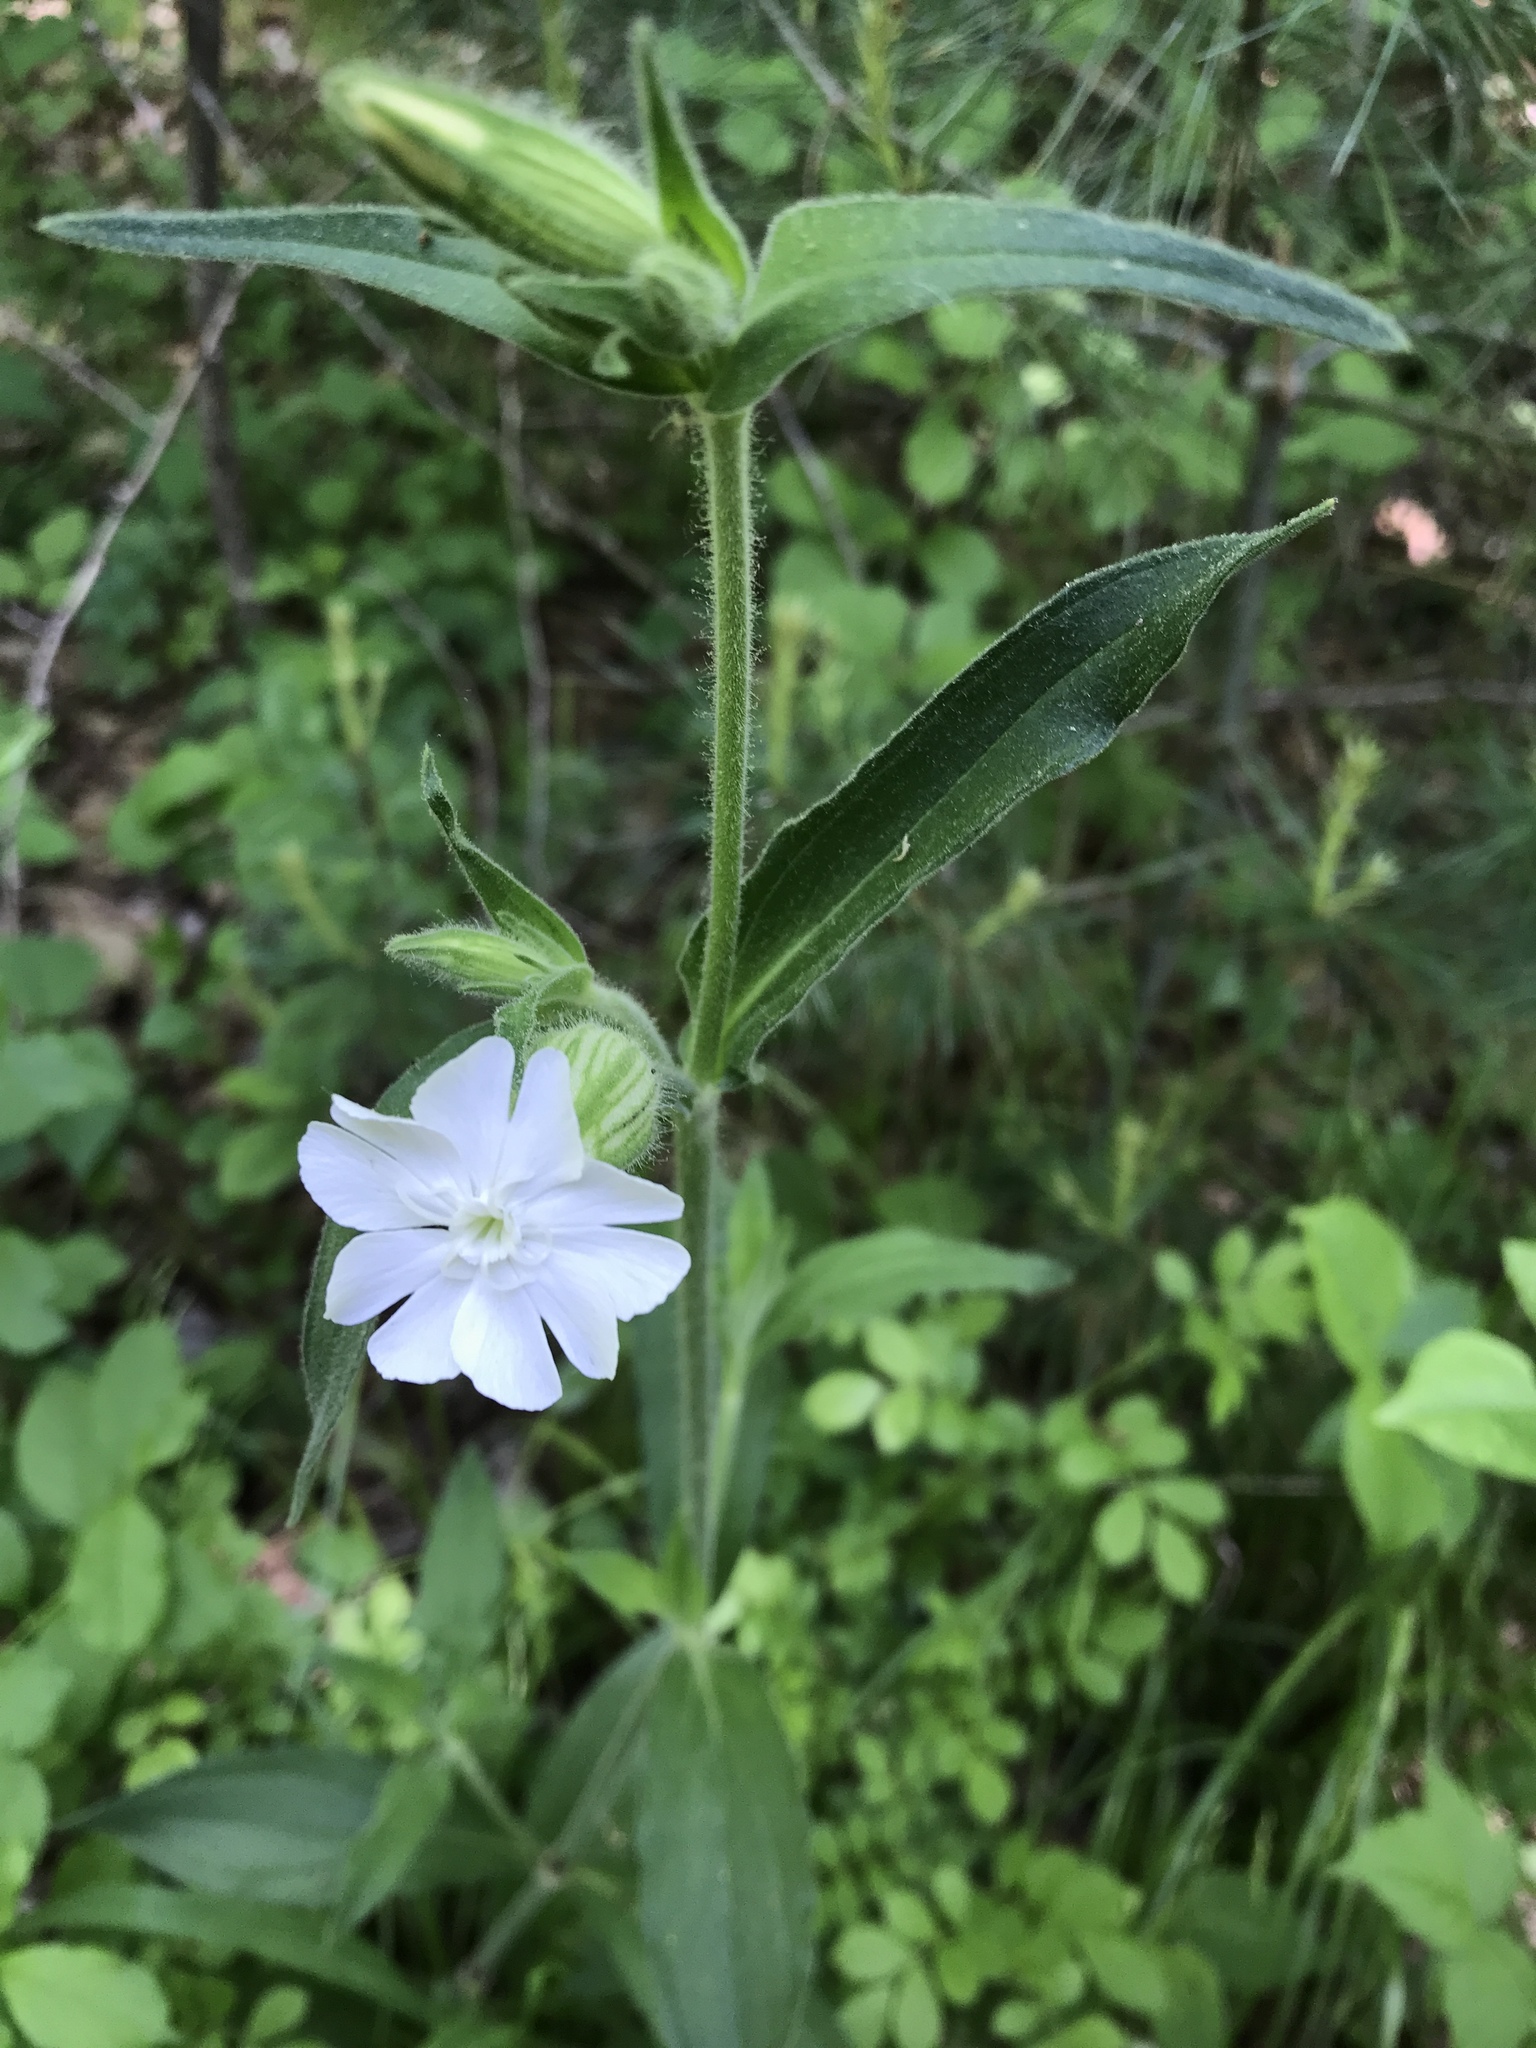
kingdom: Plantae
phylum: Tracheophyta
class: Magnoliopsida
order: Caryophyllales
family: Caryophyllaceae
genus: Silene
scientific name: Silene latifolia
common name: White campion
